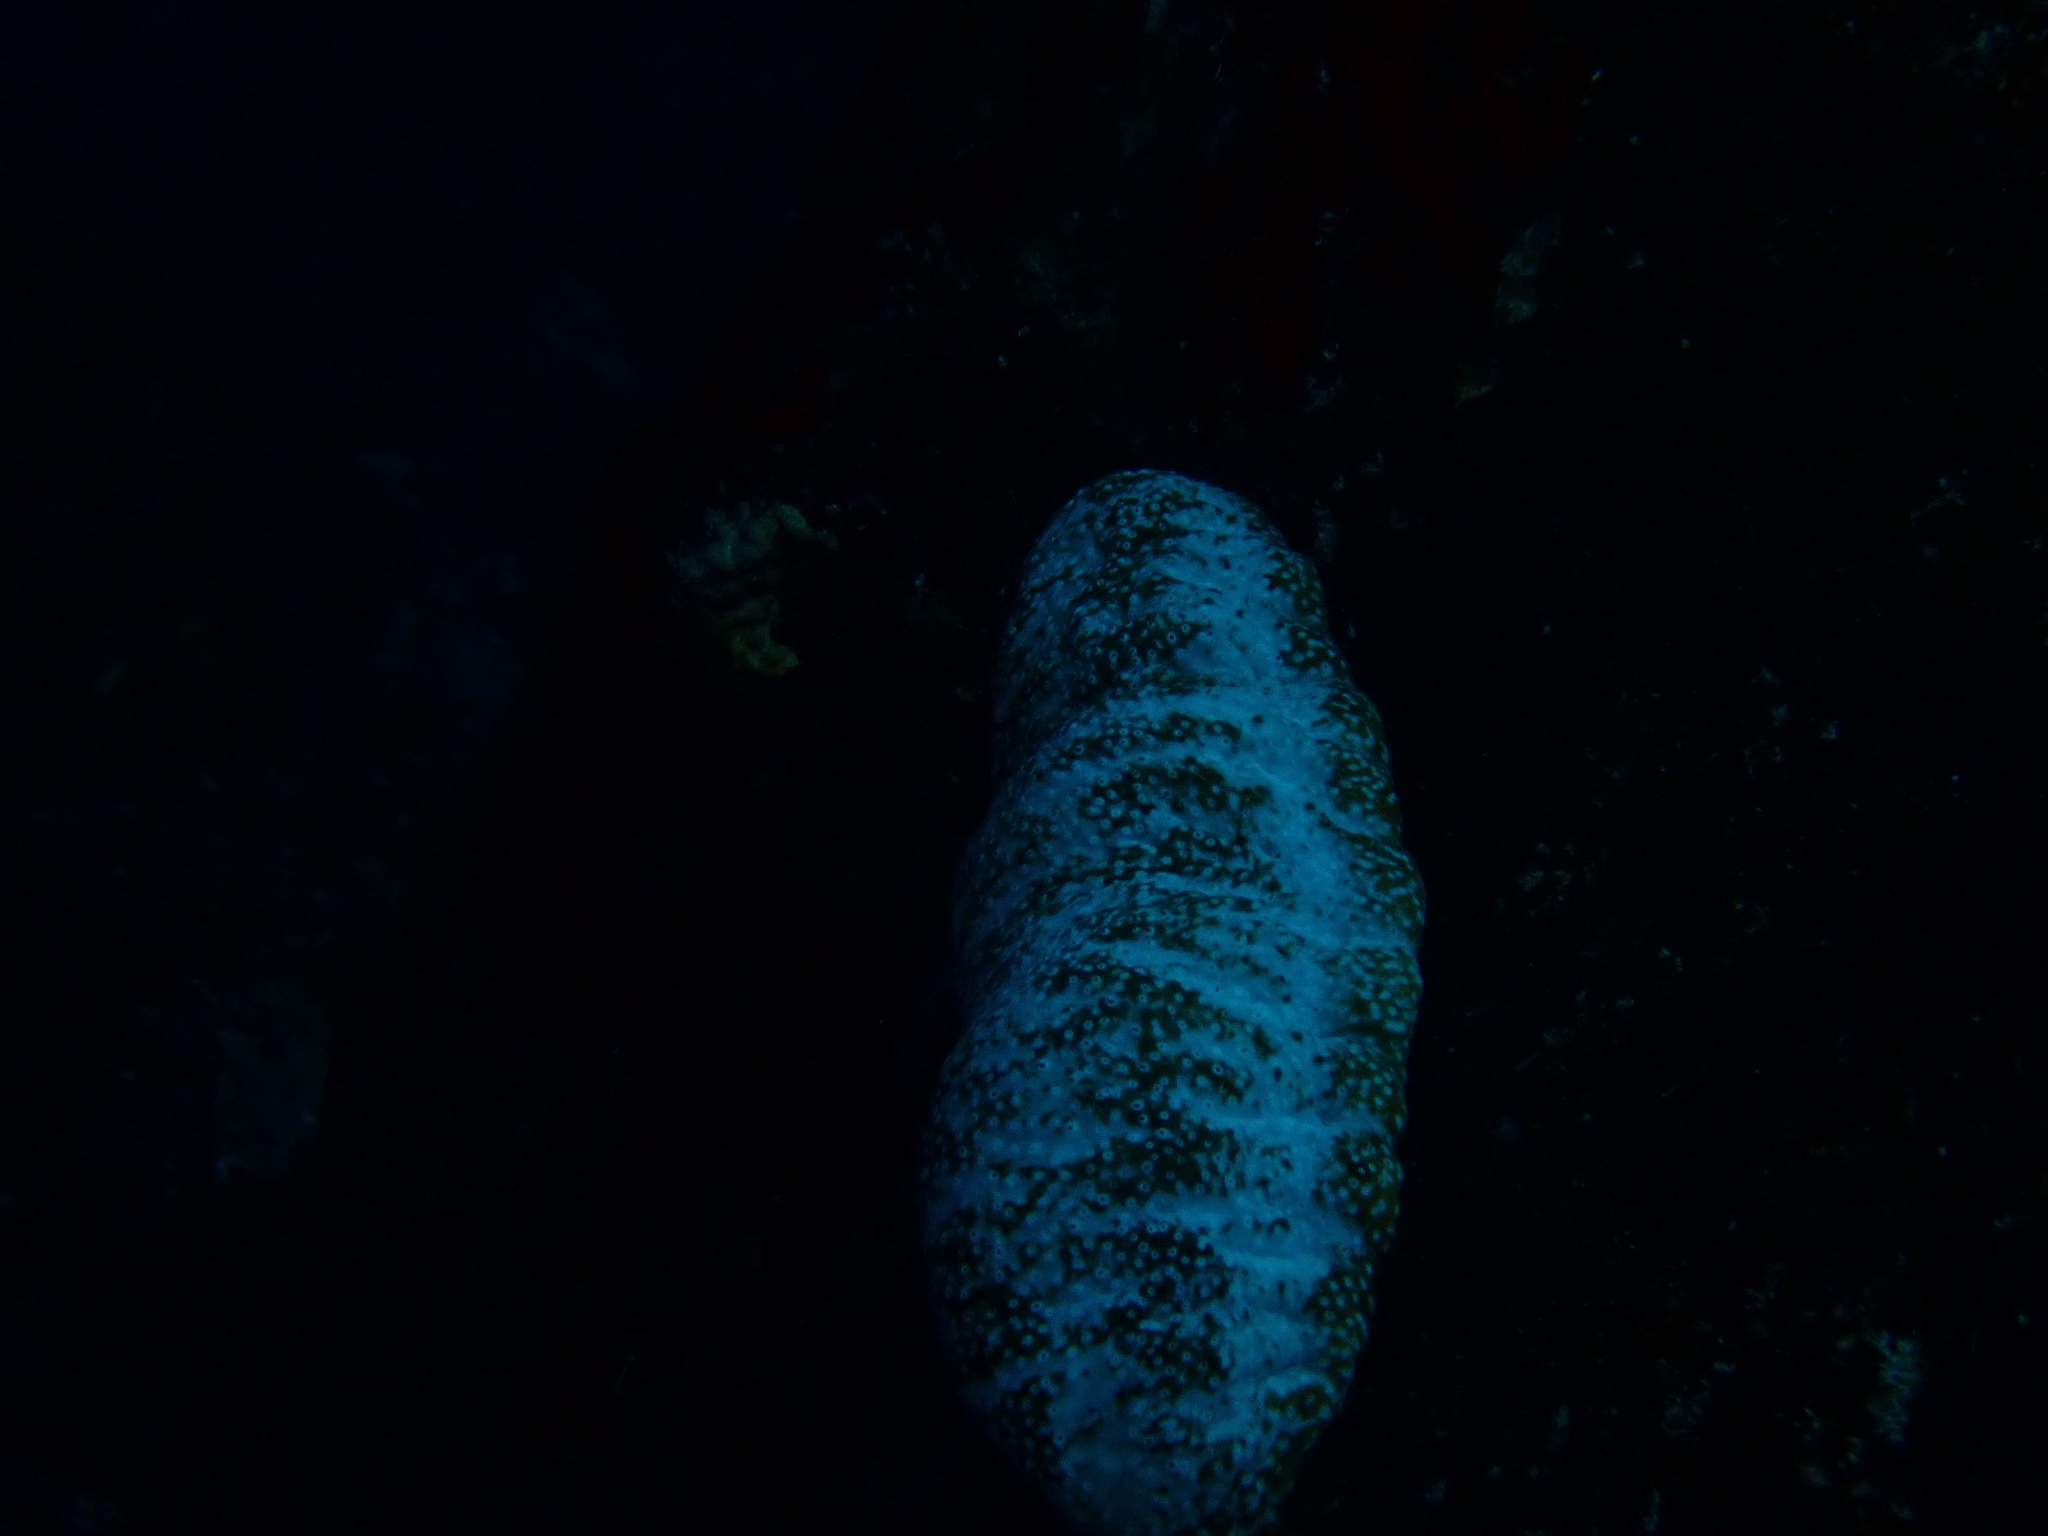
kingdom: Animalia
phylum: Echinodermata
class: Holothuroidea
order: Holothuriida
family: Holothuriidae
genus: Actinopyga
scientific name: Actinopyga varians
